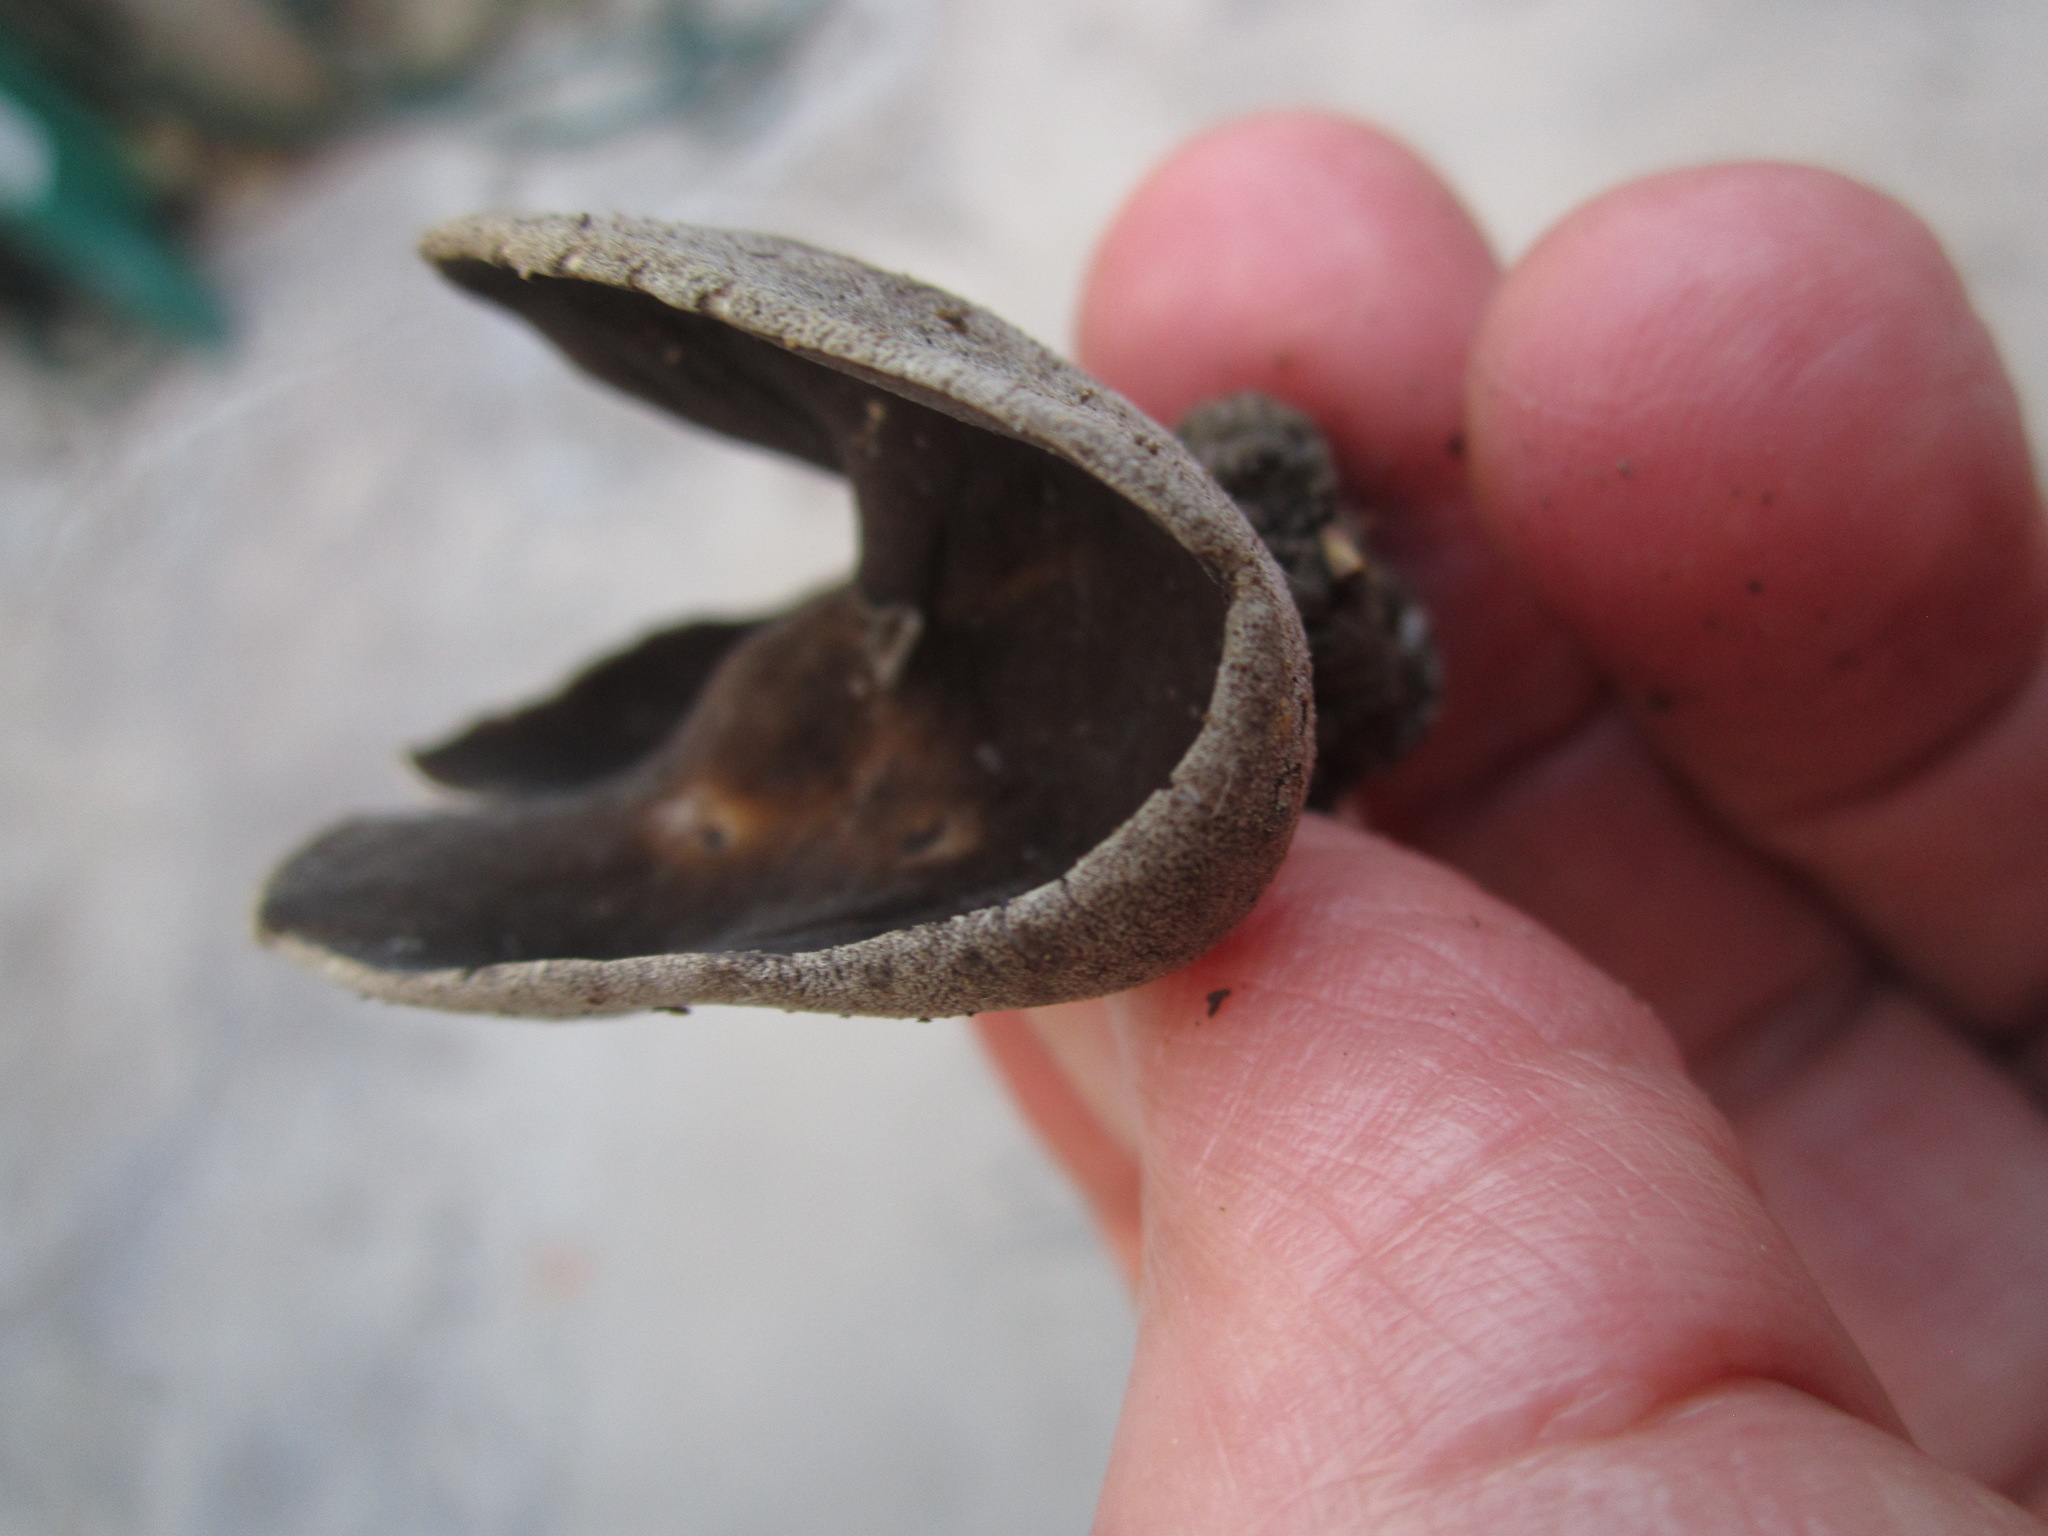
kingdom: Fungi
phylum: Ascomycota
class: Pezizomycetes
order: Pezizales
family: Helvellaceae
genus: Helvella
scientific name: Helvella solitaria
